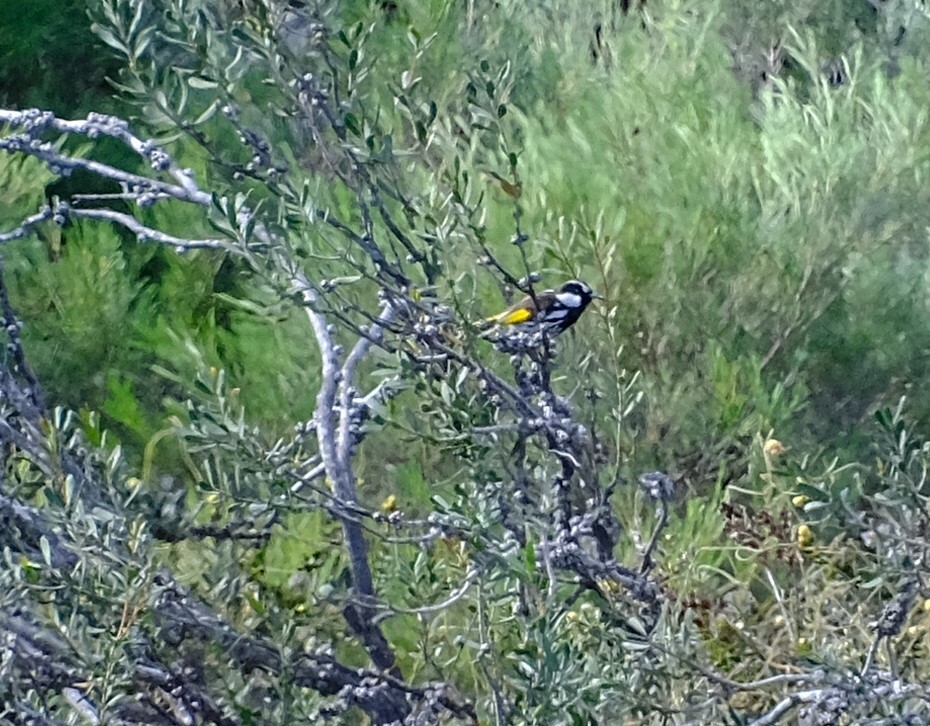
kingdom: Animalia
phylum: Chordata
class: Aves
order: Passeriformes
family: Meliphagidae
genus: Phylidonyris
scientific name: Phylidonyris niger
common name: White-cheeked honeyeater
